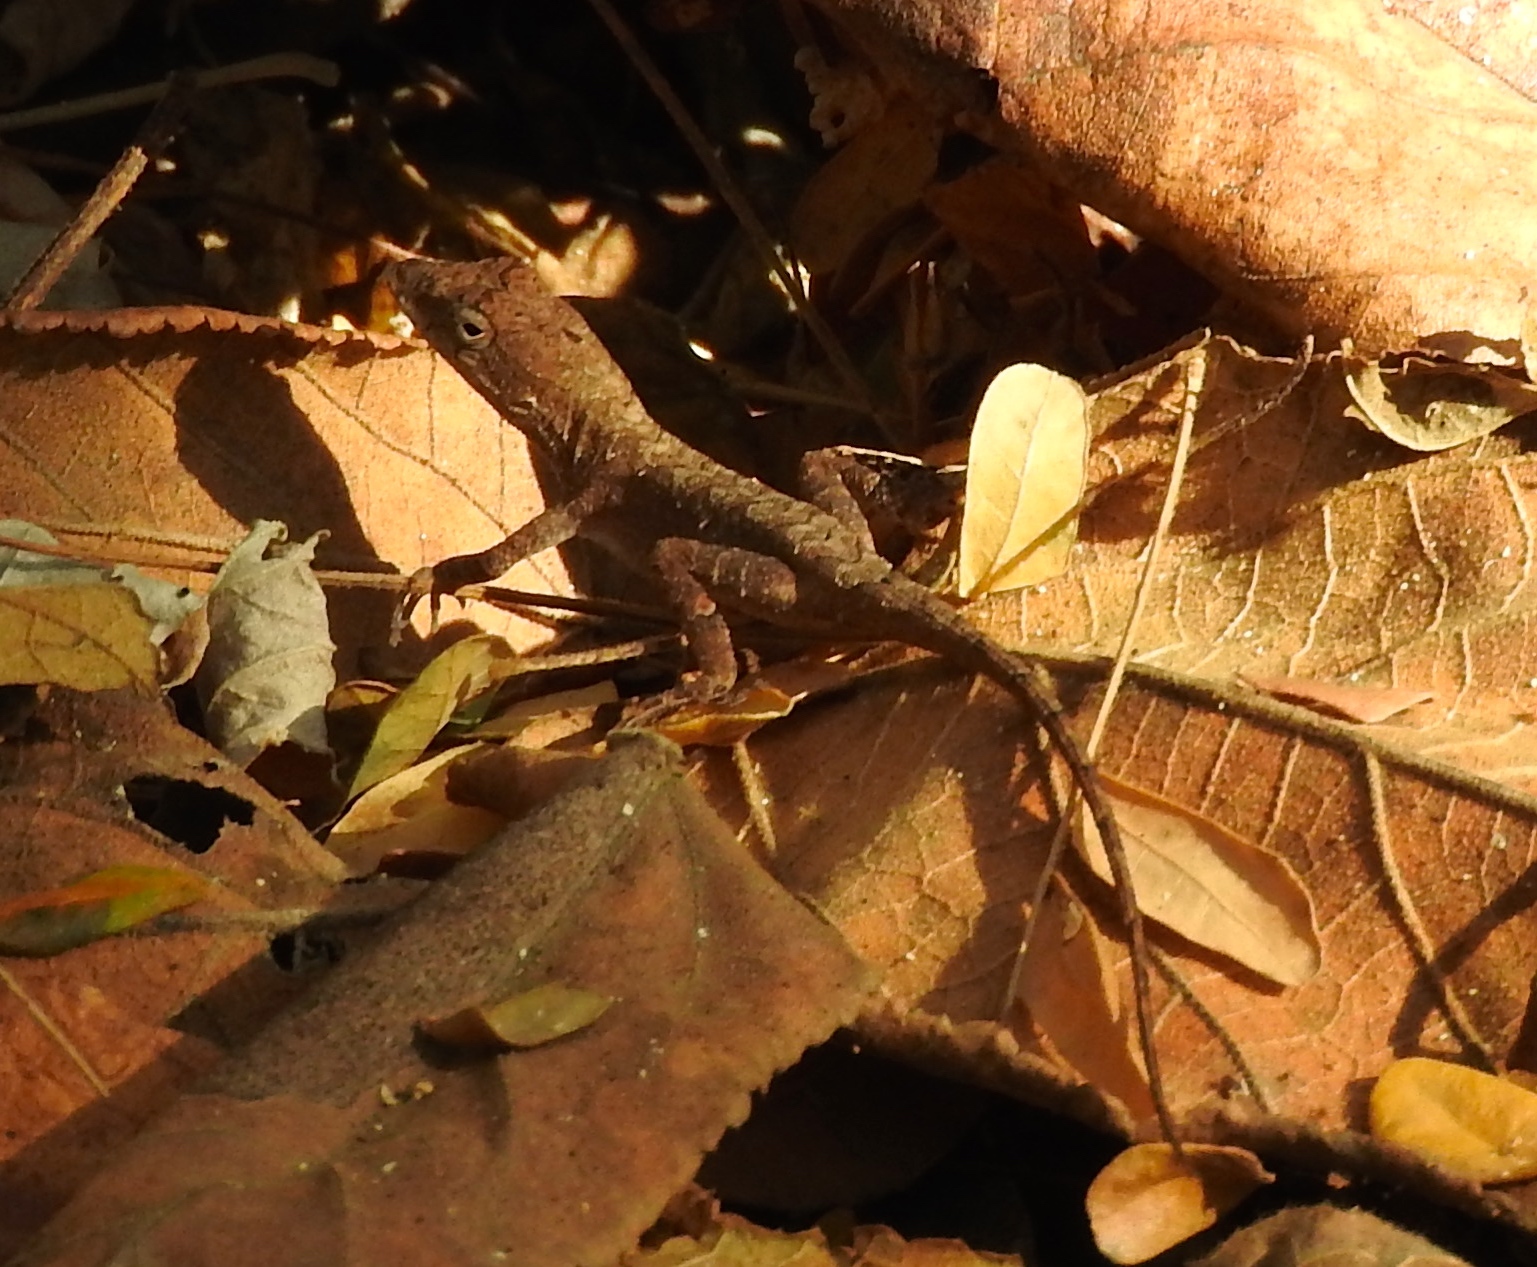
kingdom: Animalia
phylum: Chordata
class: Squamata
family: Dactyloidae
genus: Anolis
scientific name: Anolis nebulosus
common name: Clouded anole
